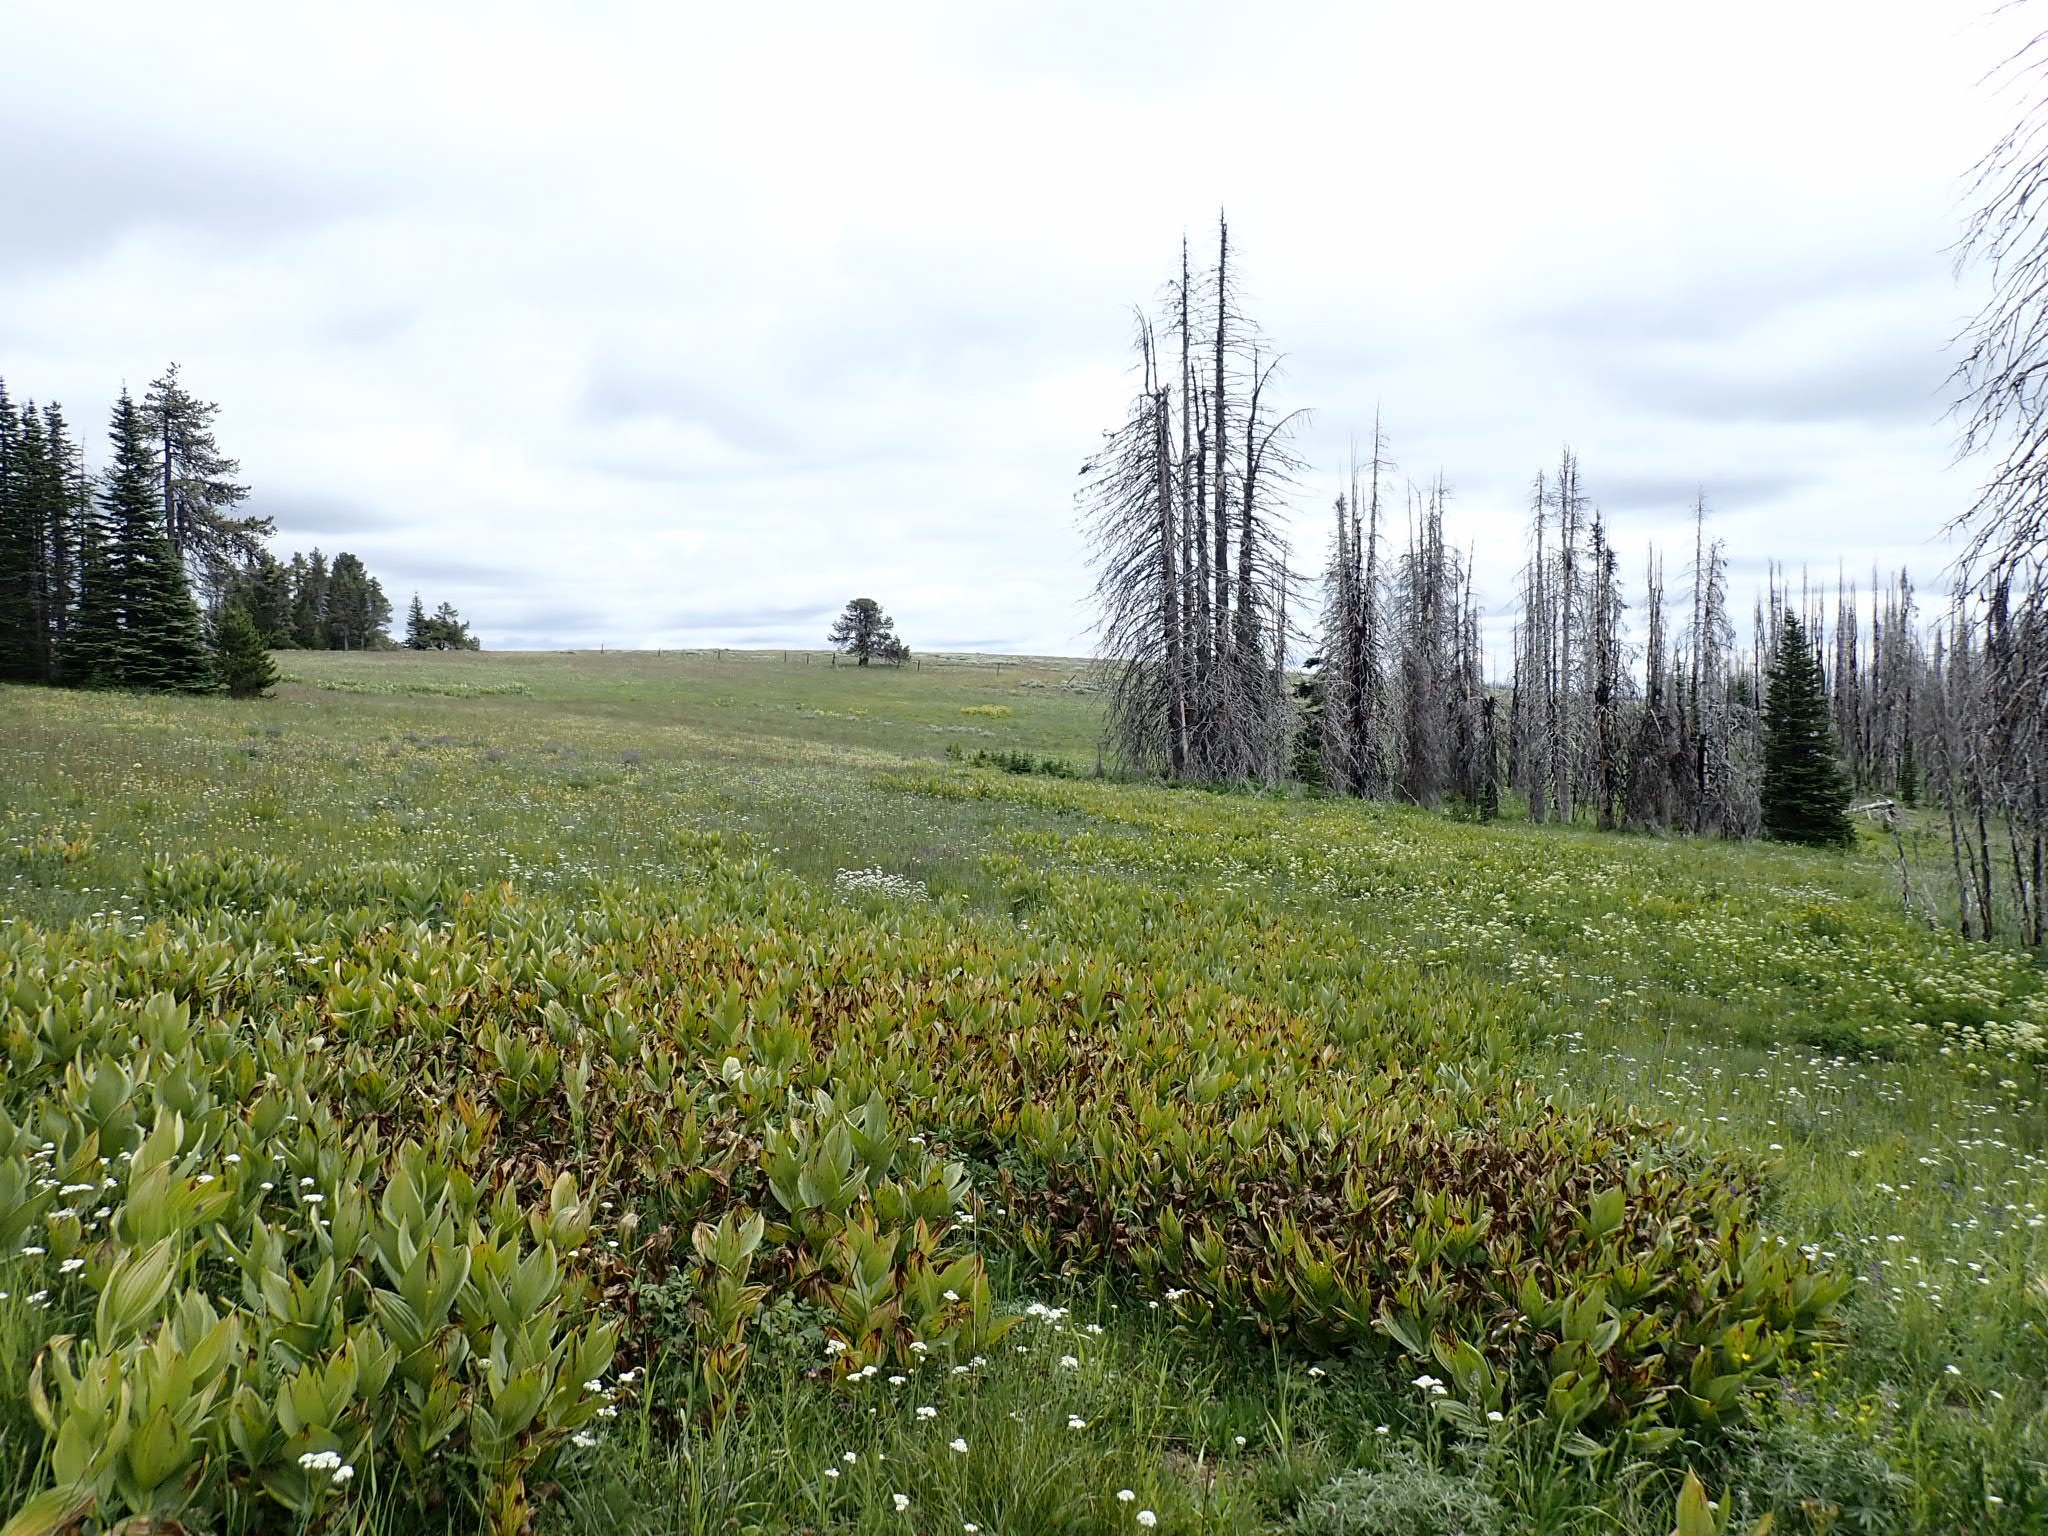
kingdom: Plantae
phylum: Tracheophyta
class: Liliopsida
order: Liliales
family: Melanthiaceae
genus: Veratrum
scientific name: Veratrum californicum
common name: California veratrum
